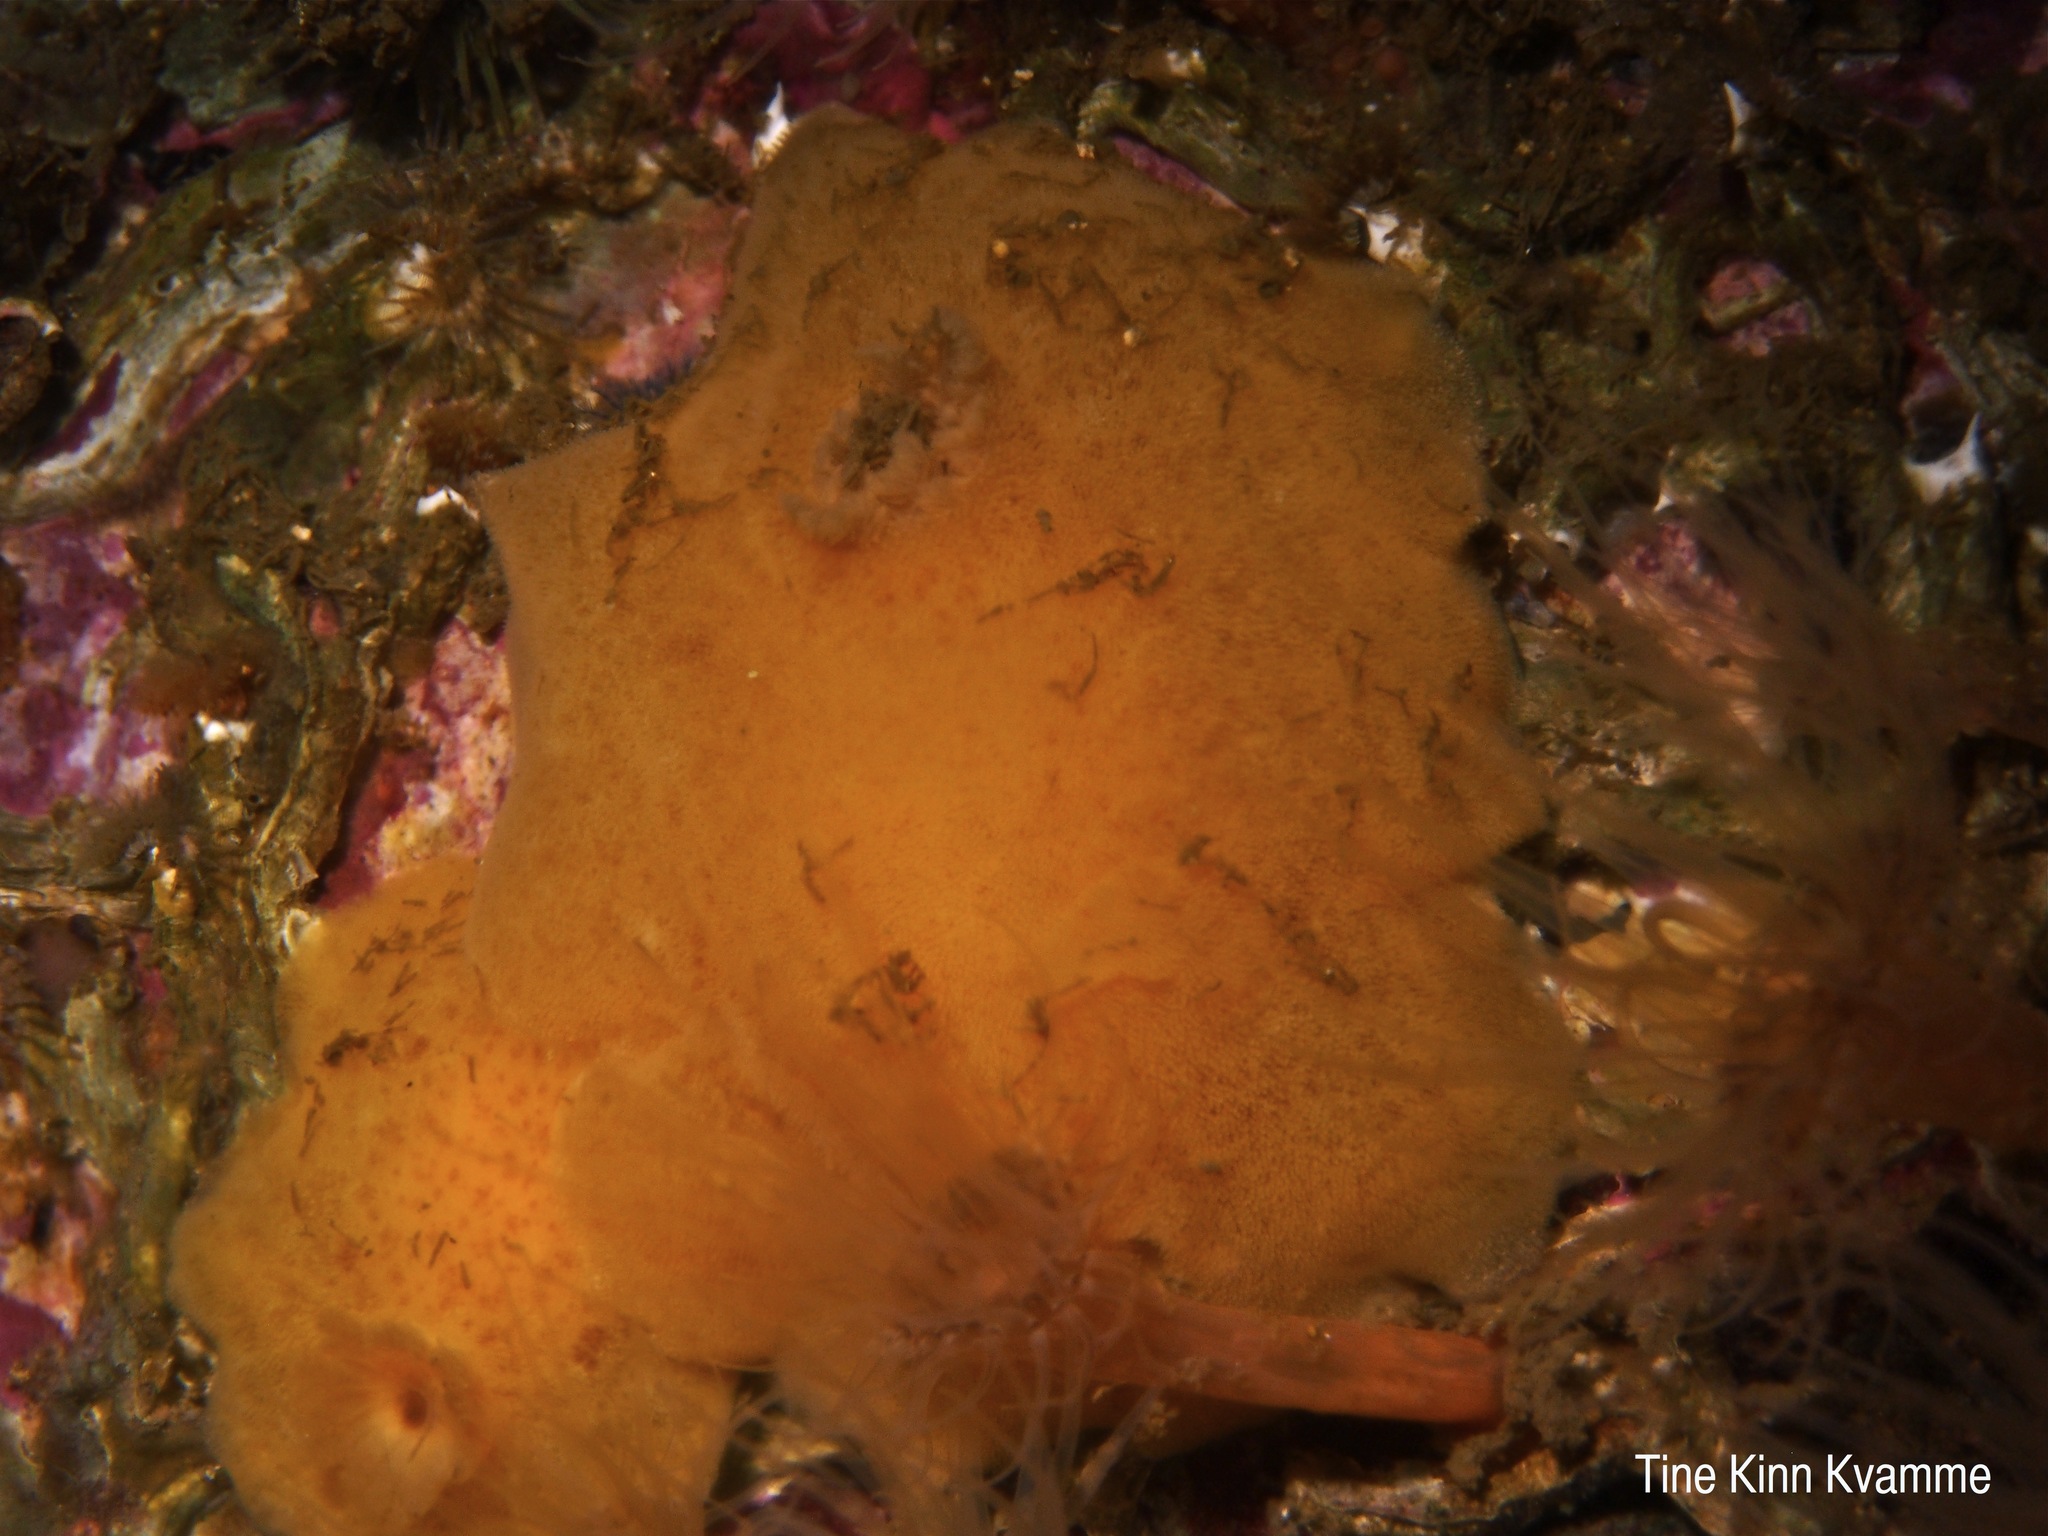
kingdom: Animalia
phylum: Mollusca
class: Gastropoda
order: Nudibranchia
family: Discodorididae
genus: Jorunna
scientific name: Jorunna tomentosa
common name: Grey sea slug
